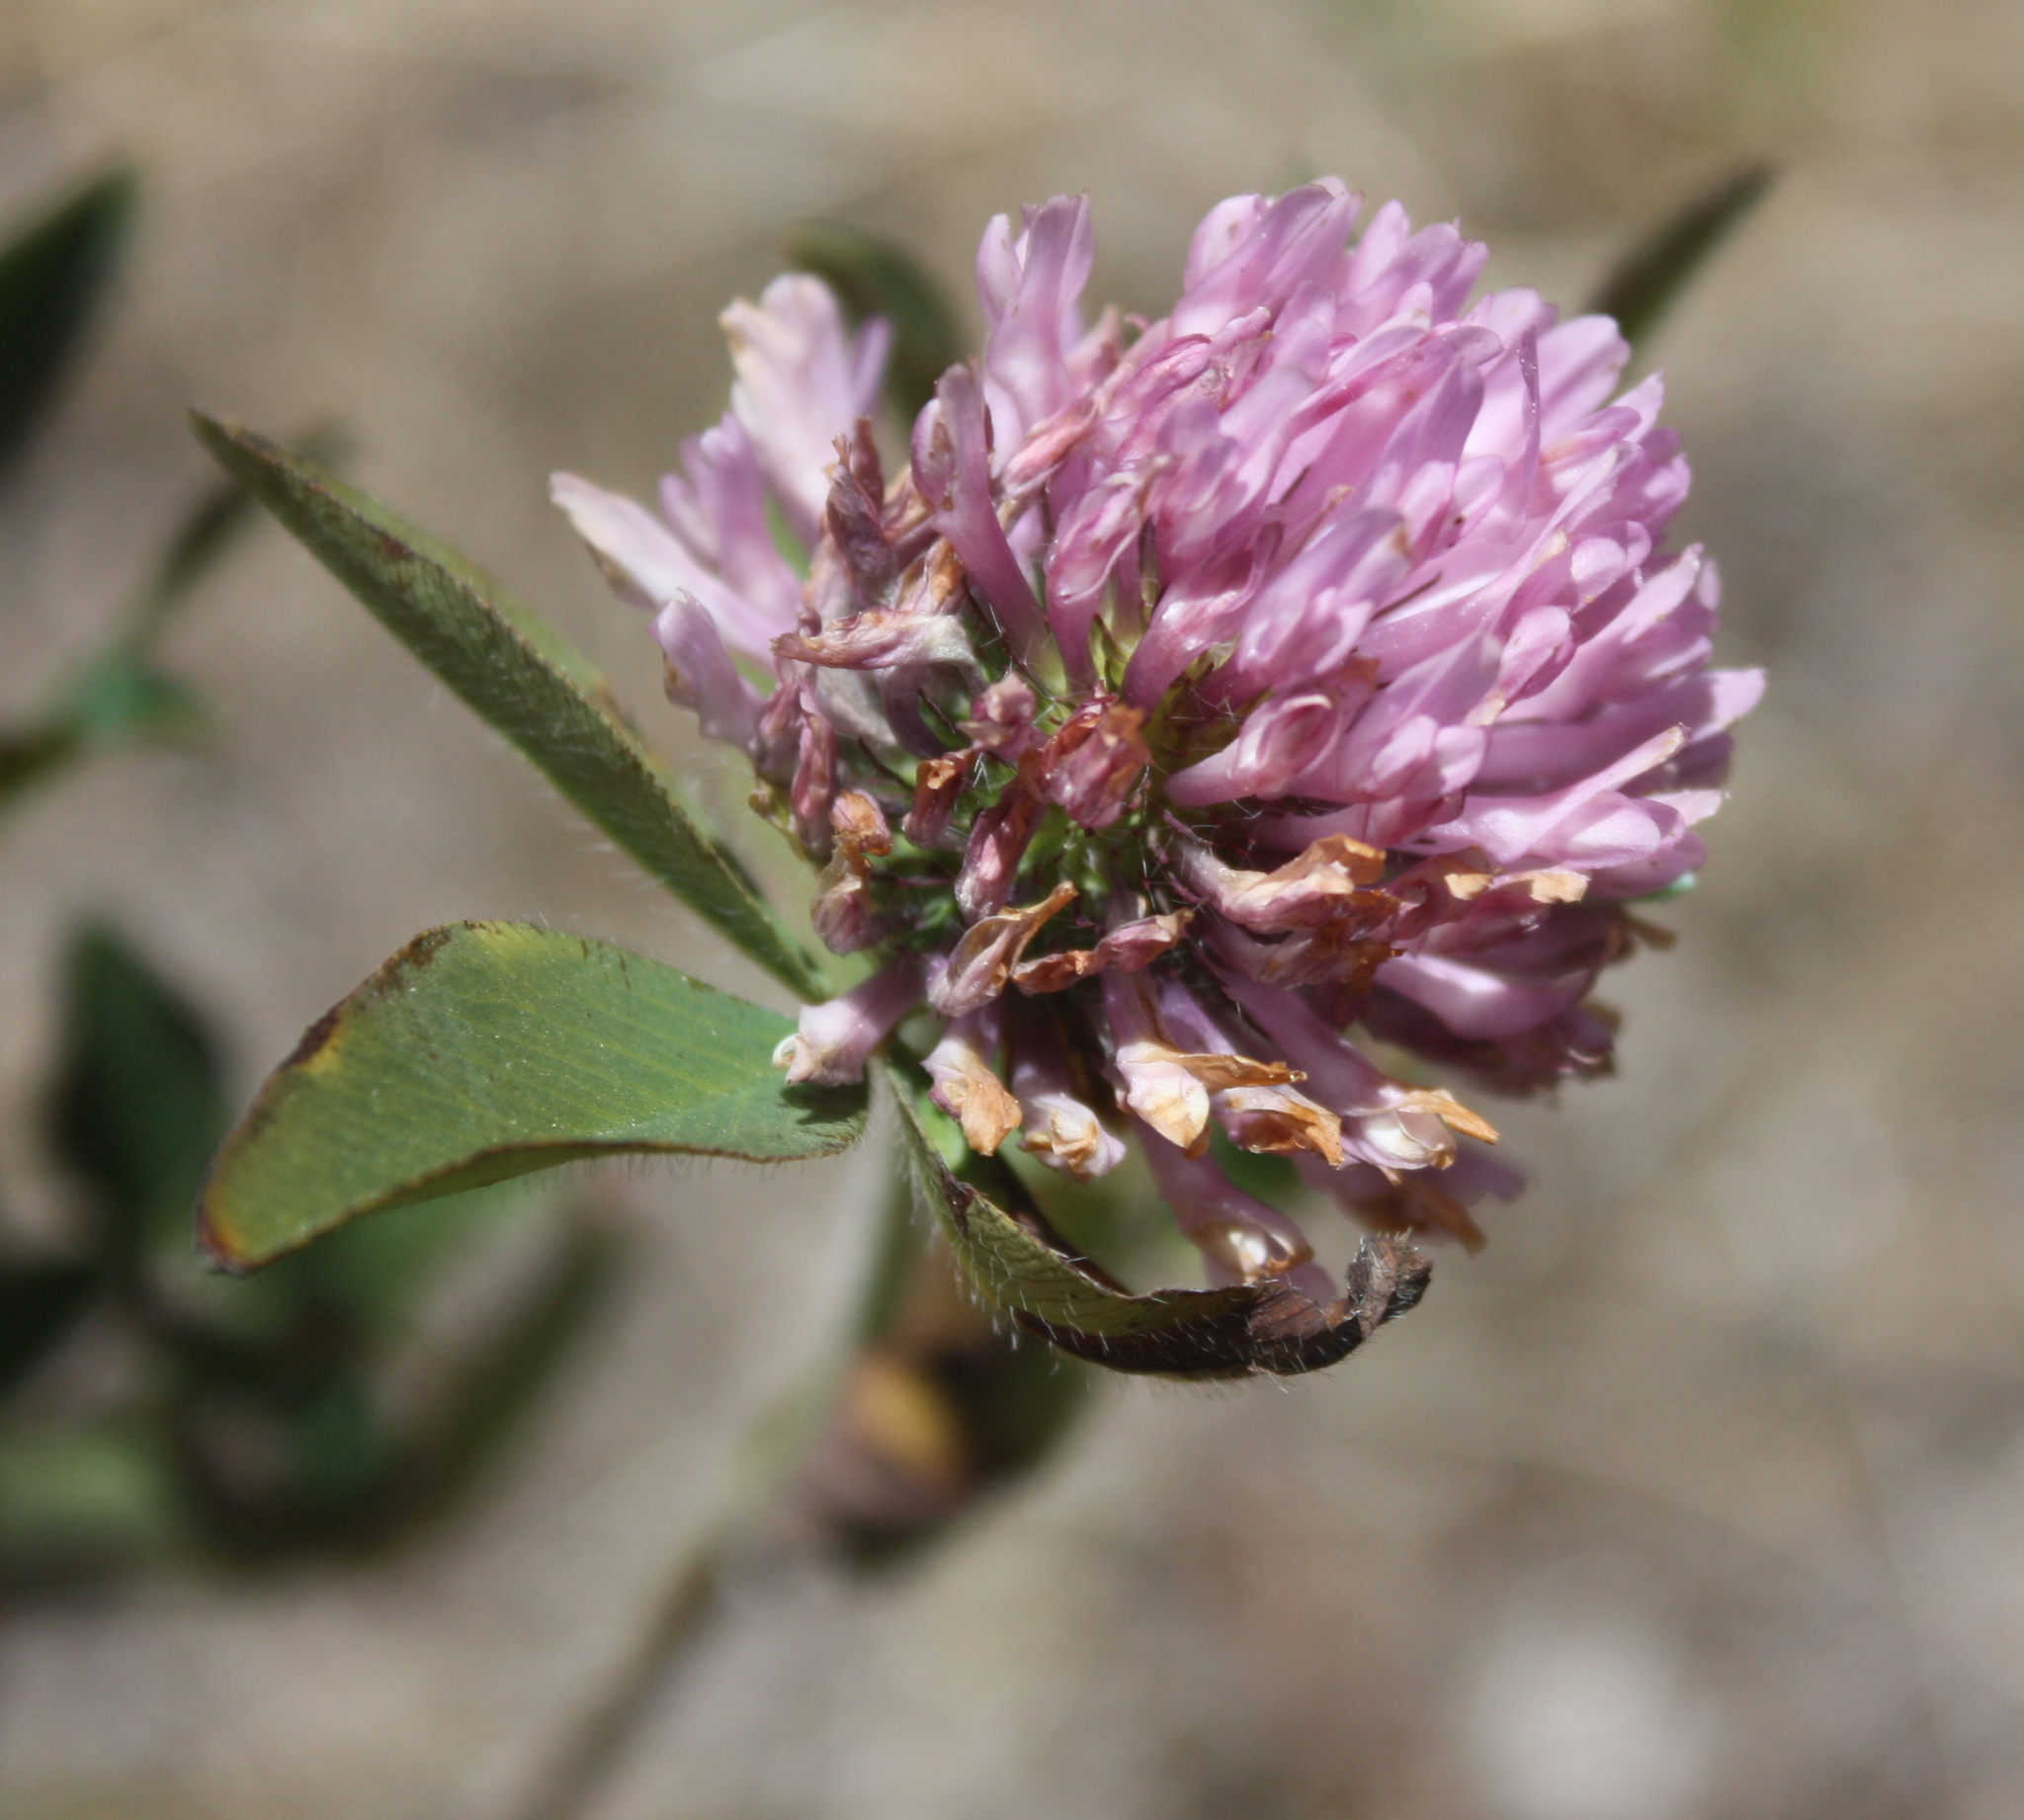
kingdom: Plantae
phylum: Tracheophyta
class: Magnoliopsida
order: Fabales
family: Fabaceae
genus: Trifolium
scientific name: Trifolium pratense
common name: Red clover
